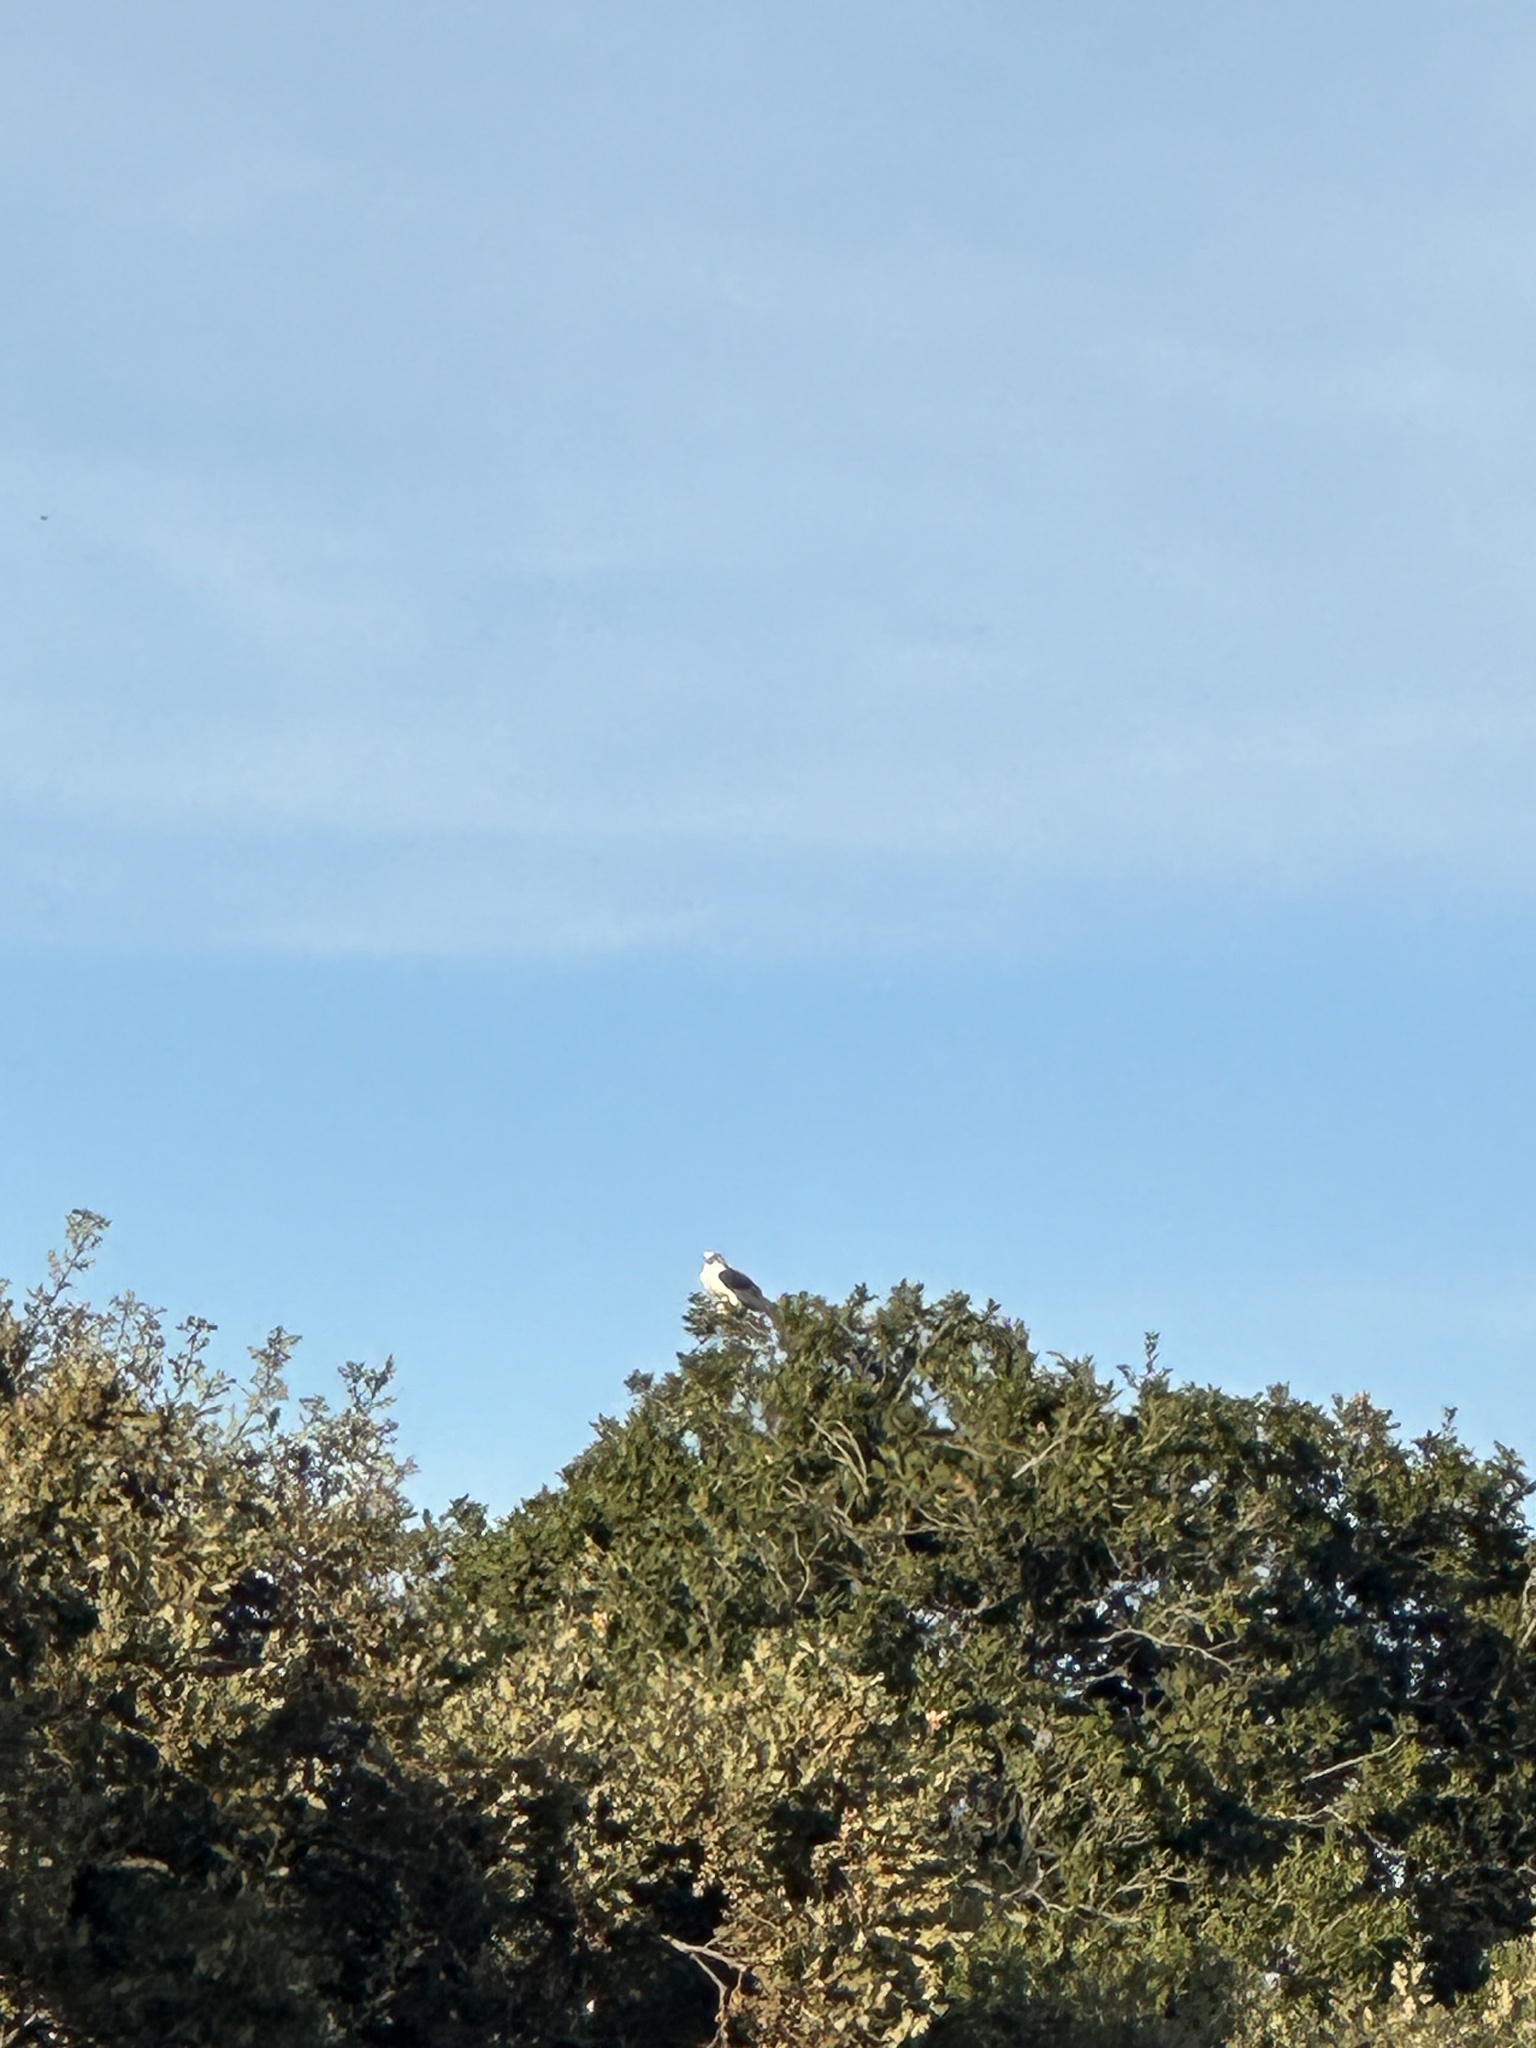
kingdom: Animalia
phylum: Chordata
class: Aves
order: Accipitriformes
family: Accipitridae
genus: Elanus
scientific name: Elanus leucurus
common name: White-tailed kite
